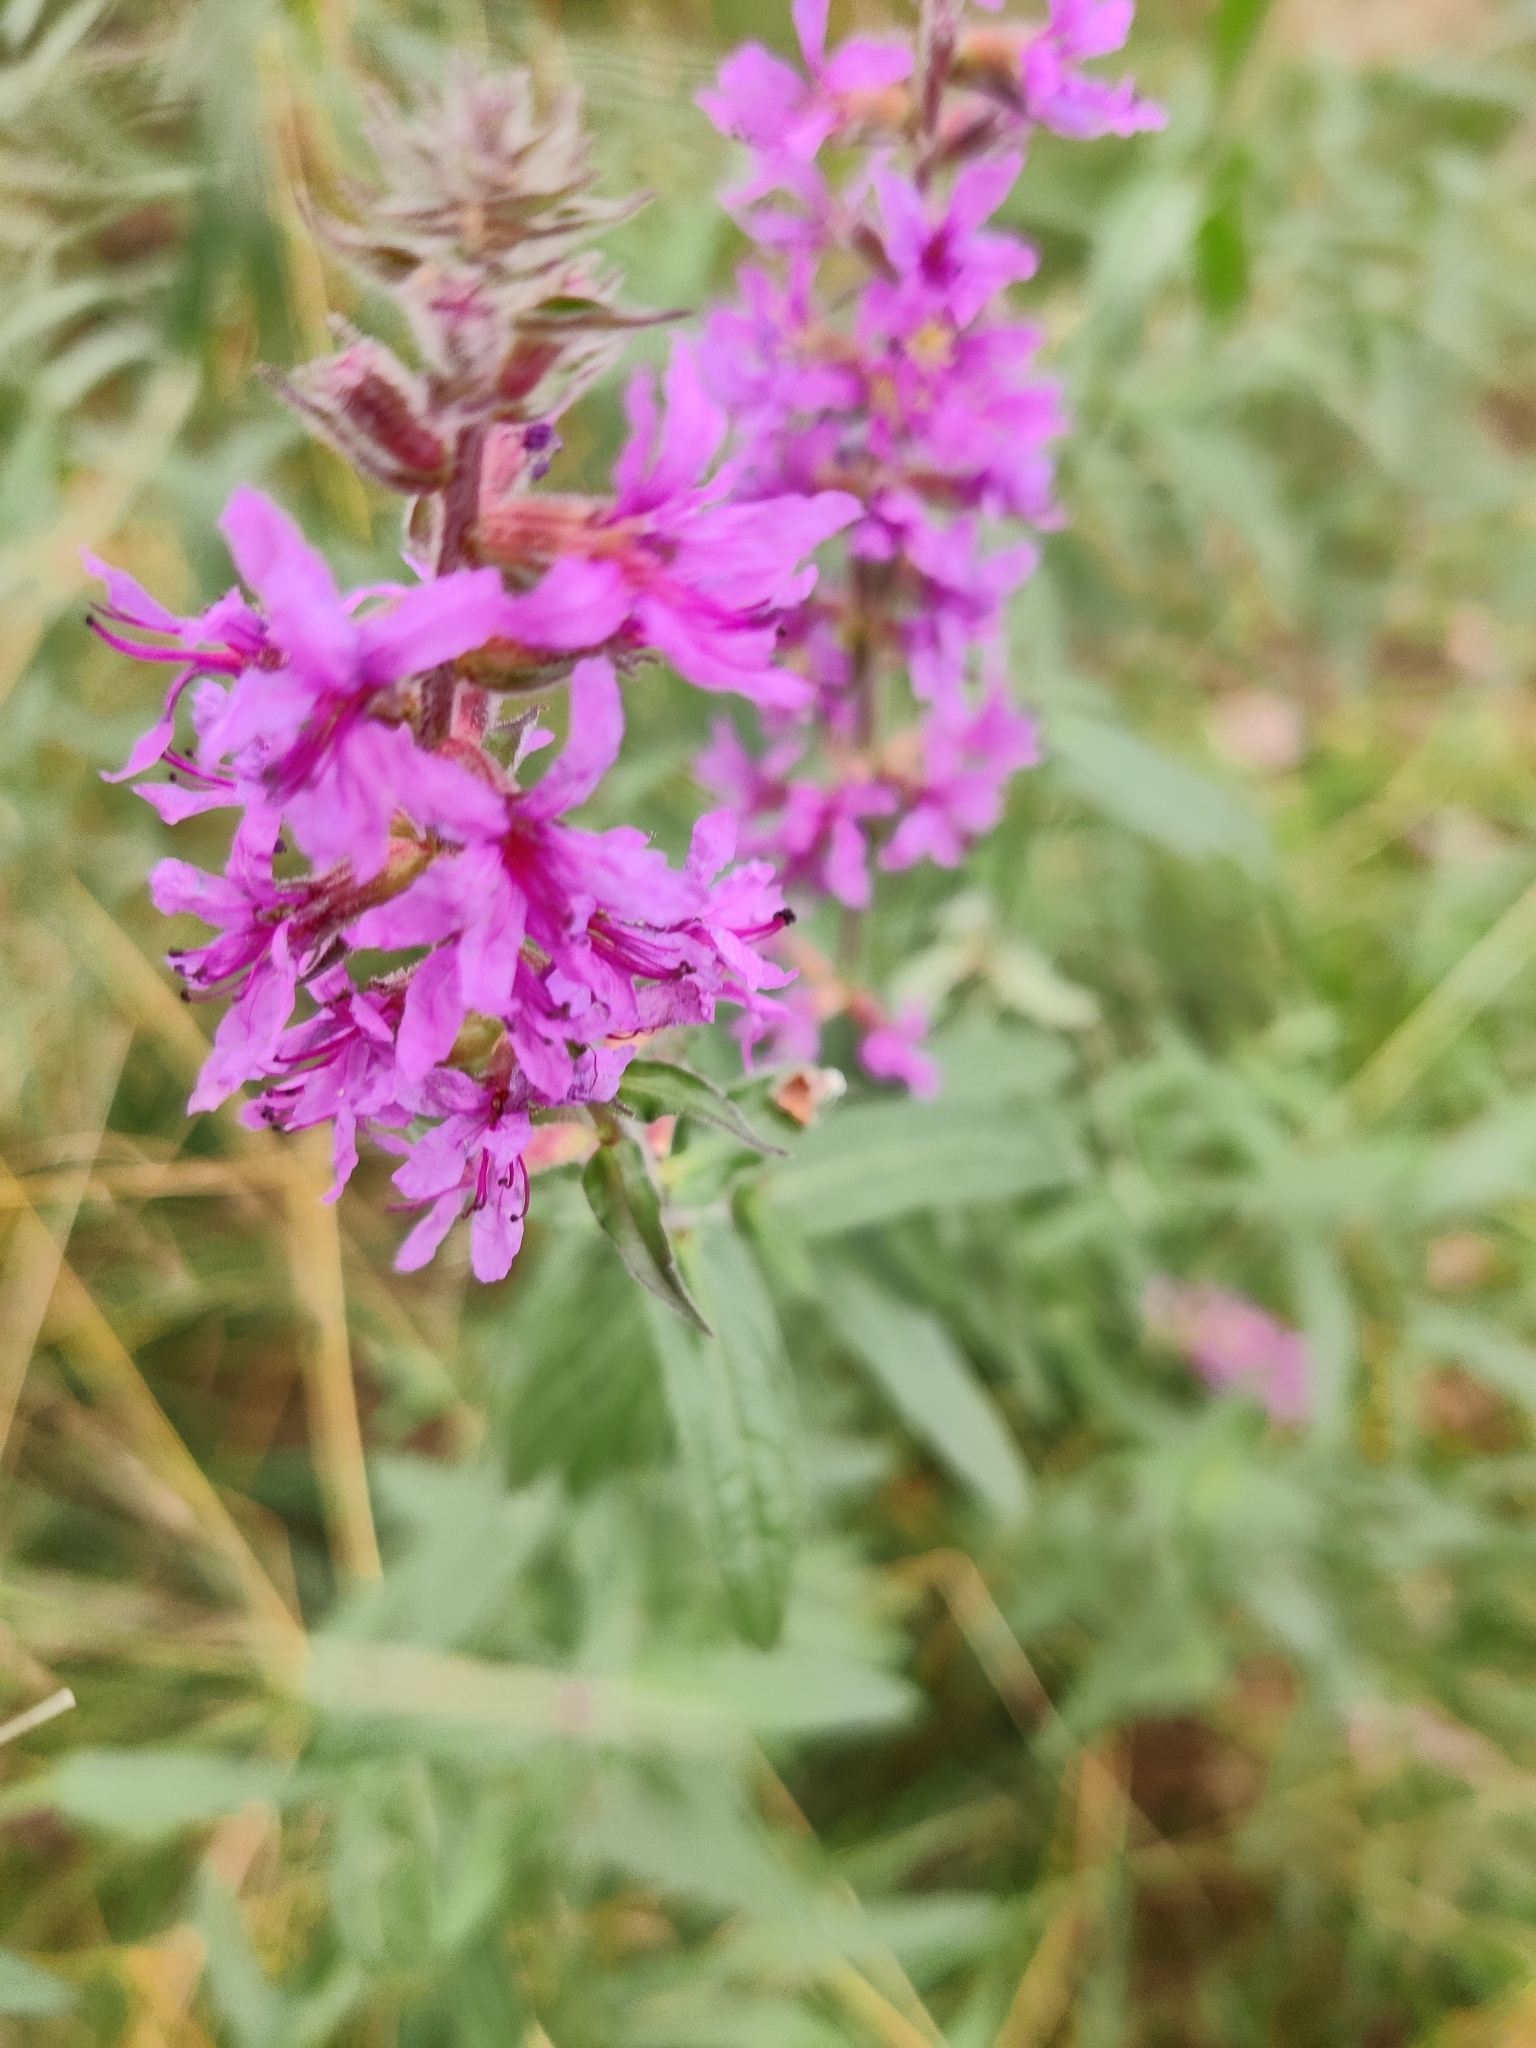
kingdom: Plantae
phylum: Tracheophyta
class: Magnoliopsida
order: Myrtales
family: Lythraceae
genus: Lythrum
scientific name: Lythrum salicaria
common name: Purple loosestrife
